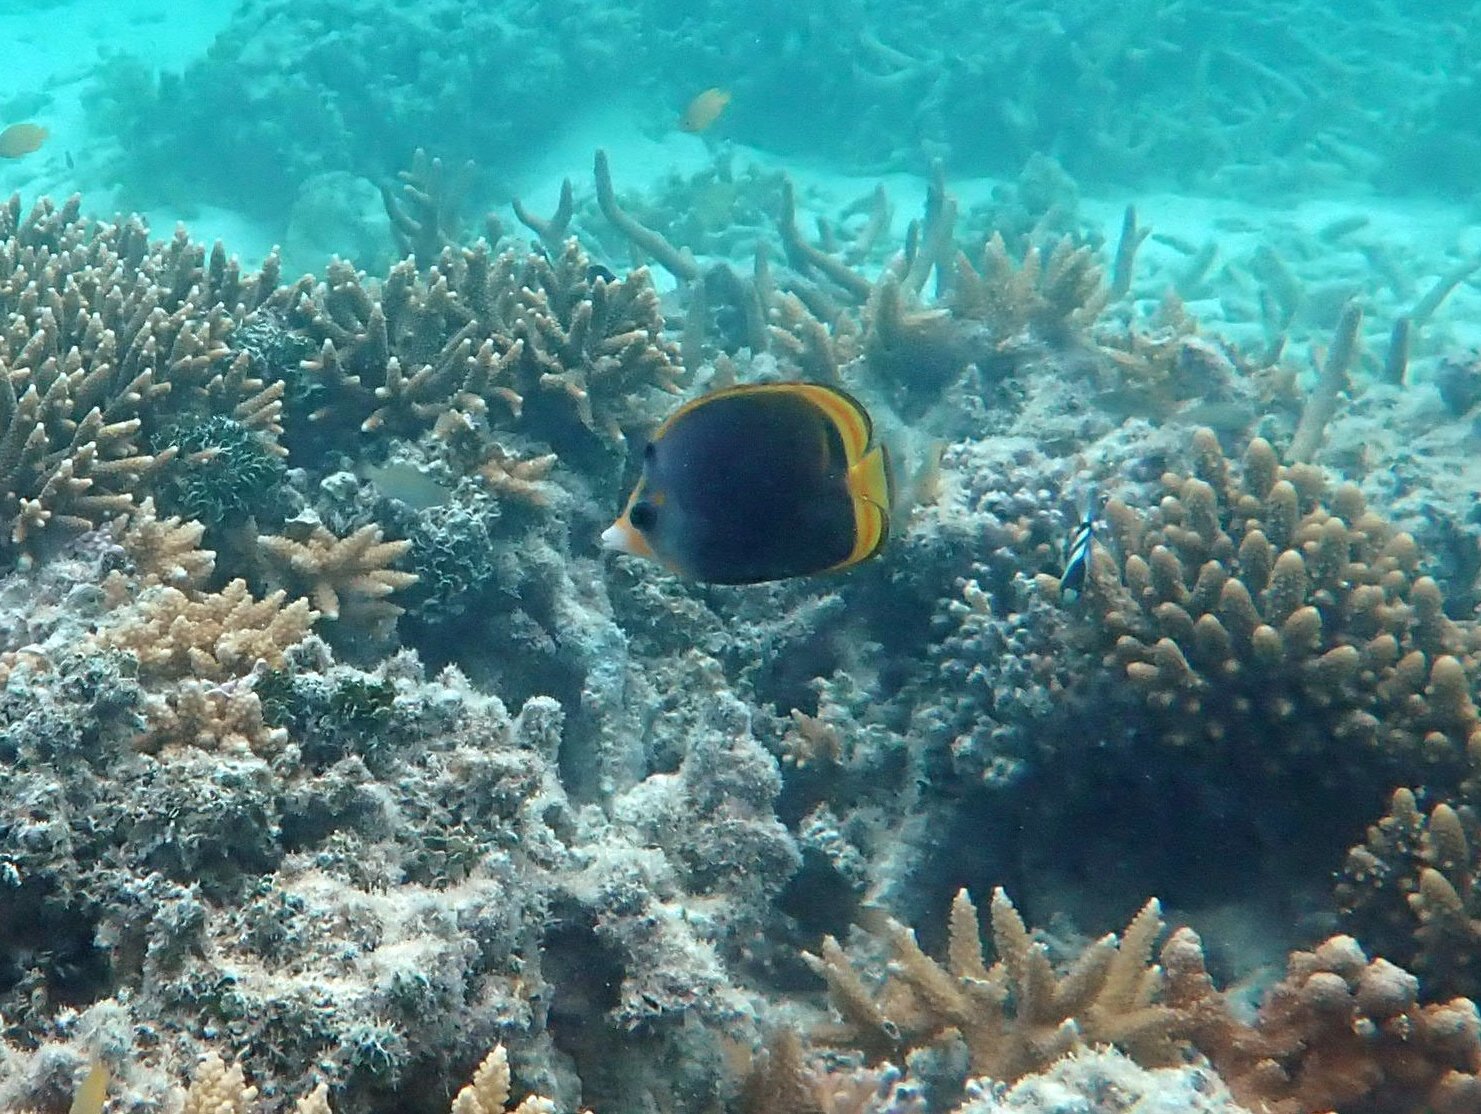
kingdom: Animalia
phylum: Chordata
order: Perciformes
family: Chaetodontidae
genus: Chaetodon
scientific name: Chaetodon flavirostris
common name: Black butterflyfish
